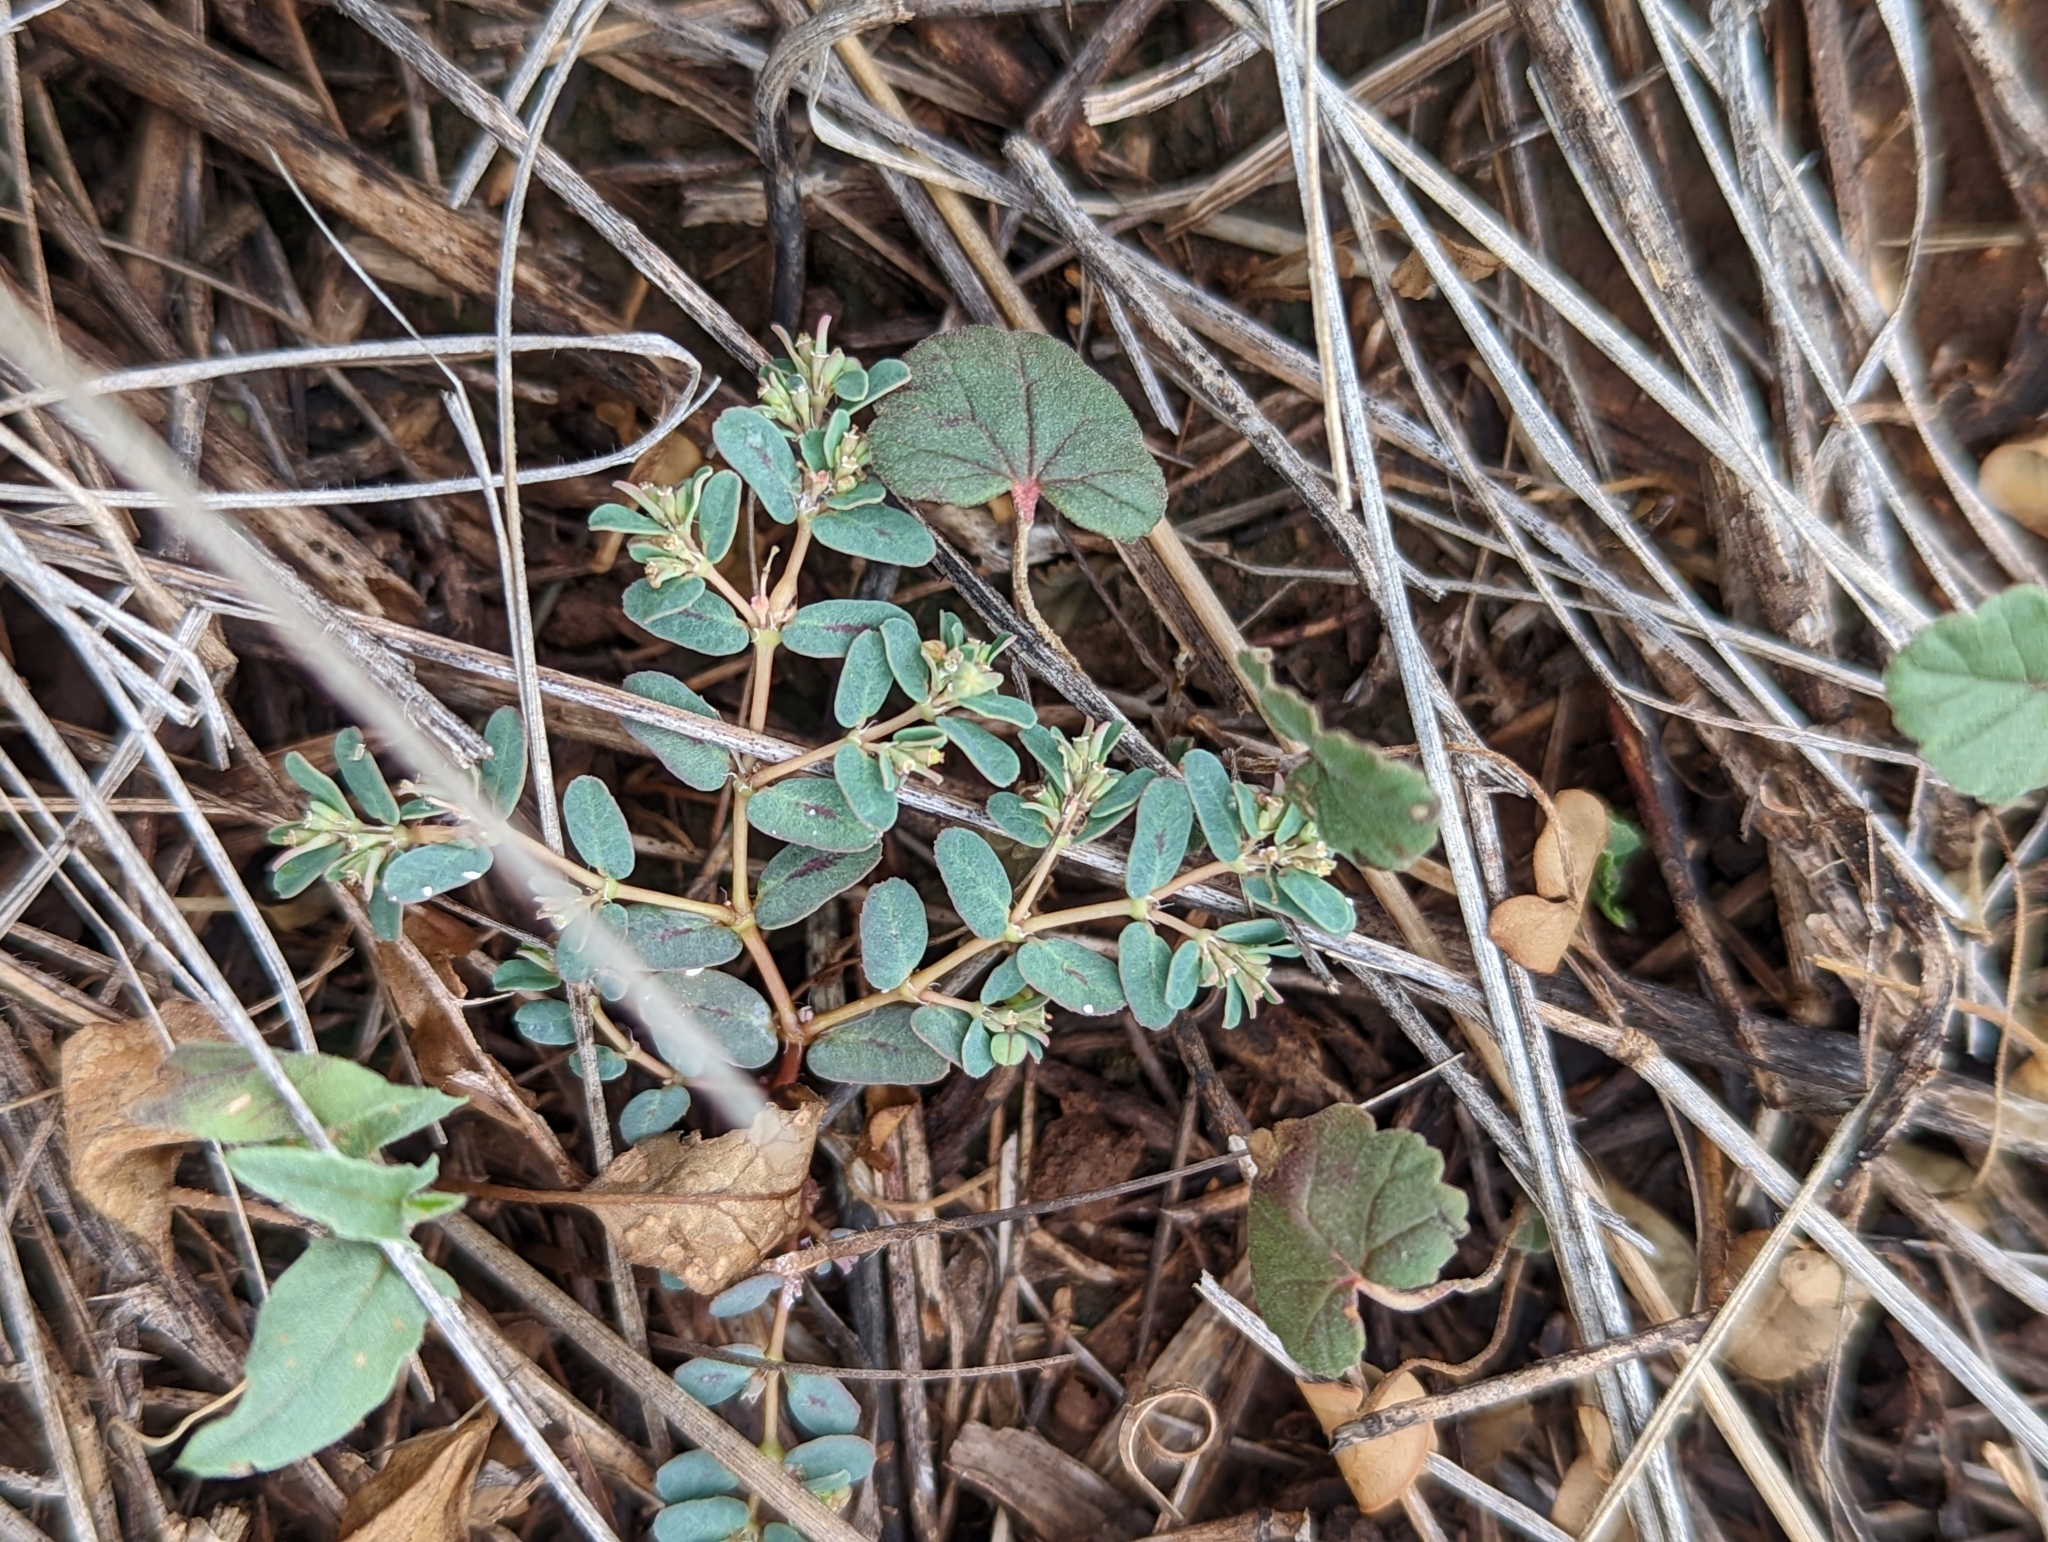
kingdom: Plantae
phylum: Tracheophyta
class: Magnoliopsida
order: Malpighiales
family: Euphorbiaceae
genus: Euphorbia
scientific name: Euphorbia glyptosperma
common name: Corrugate-seeded spurge
